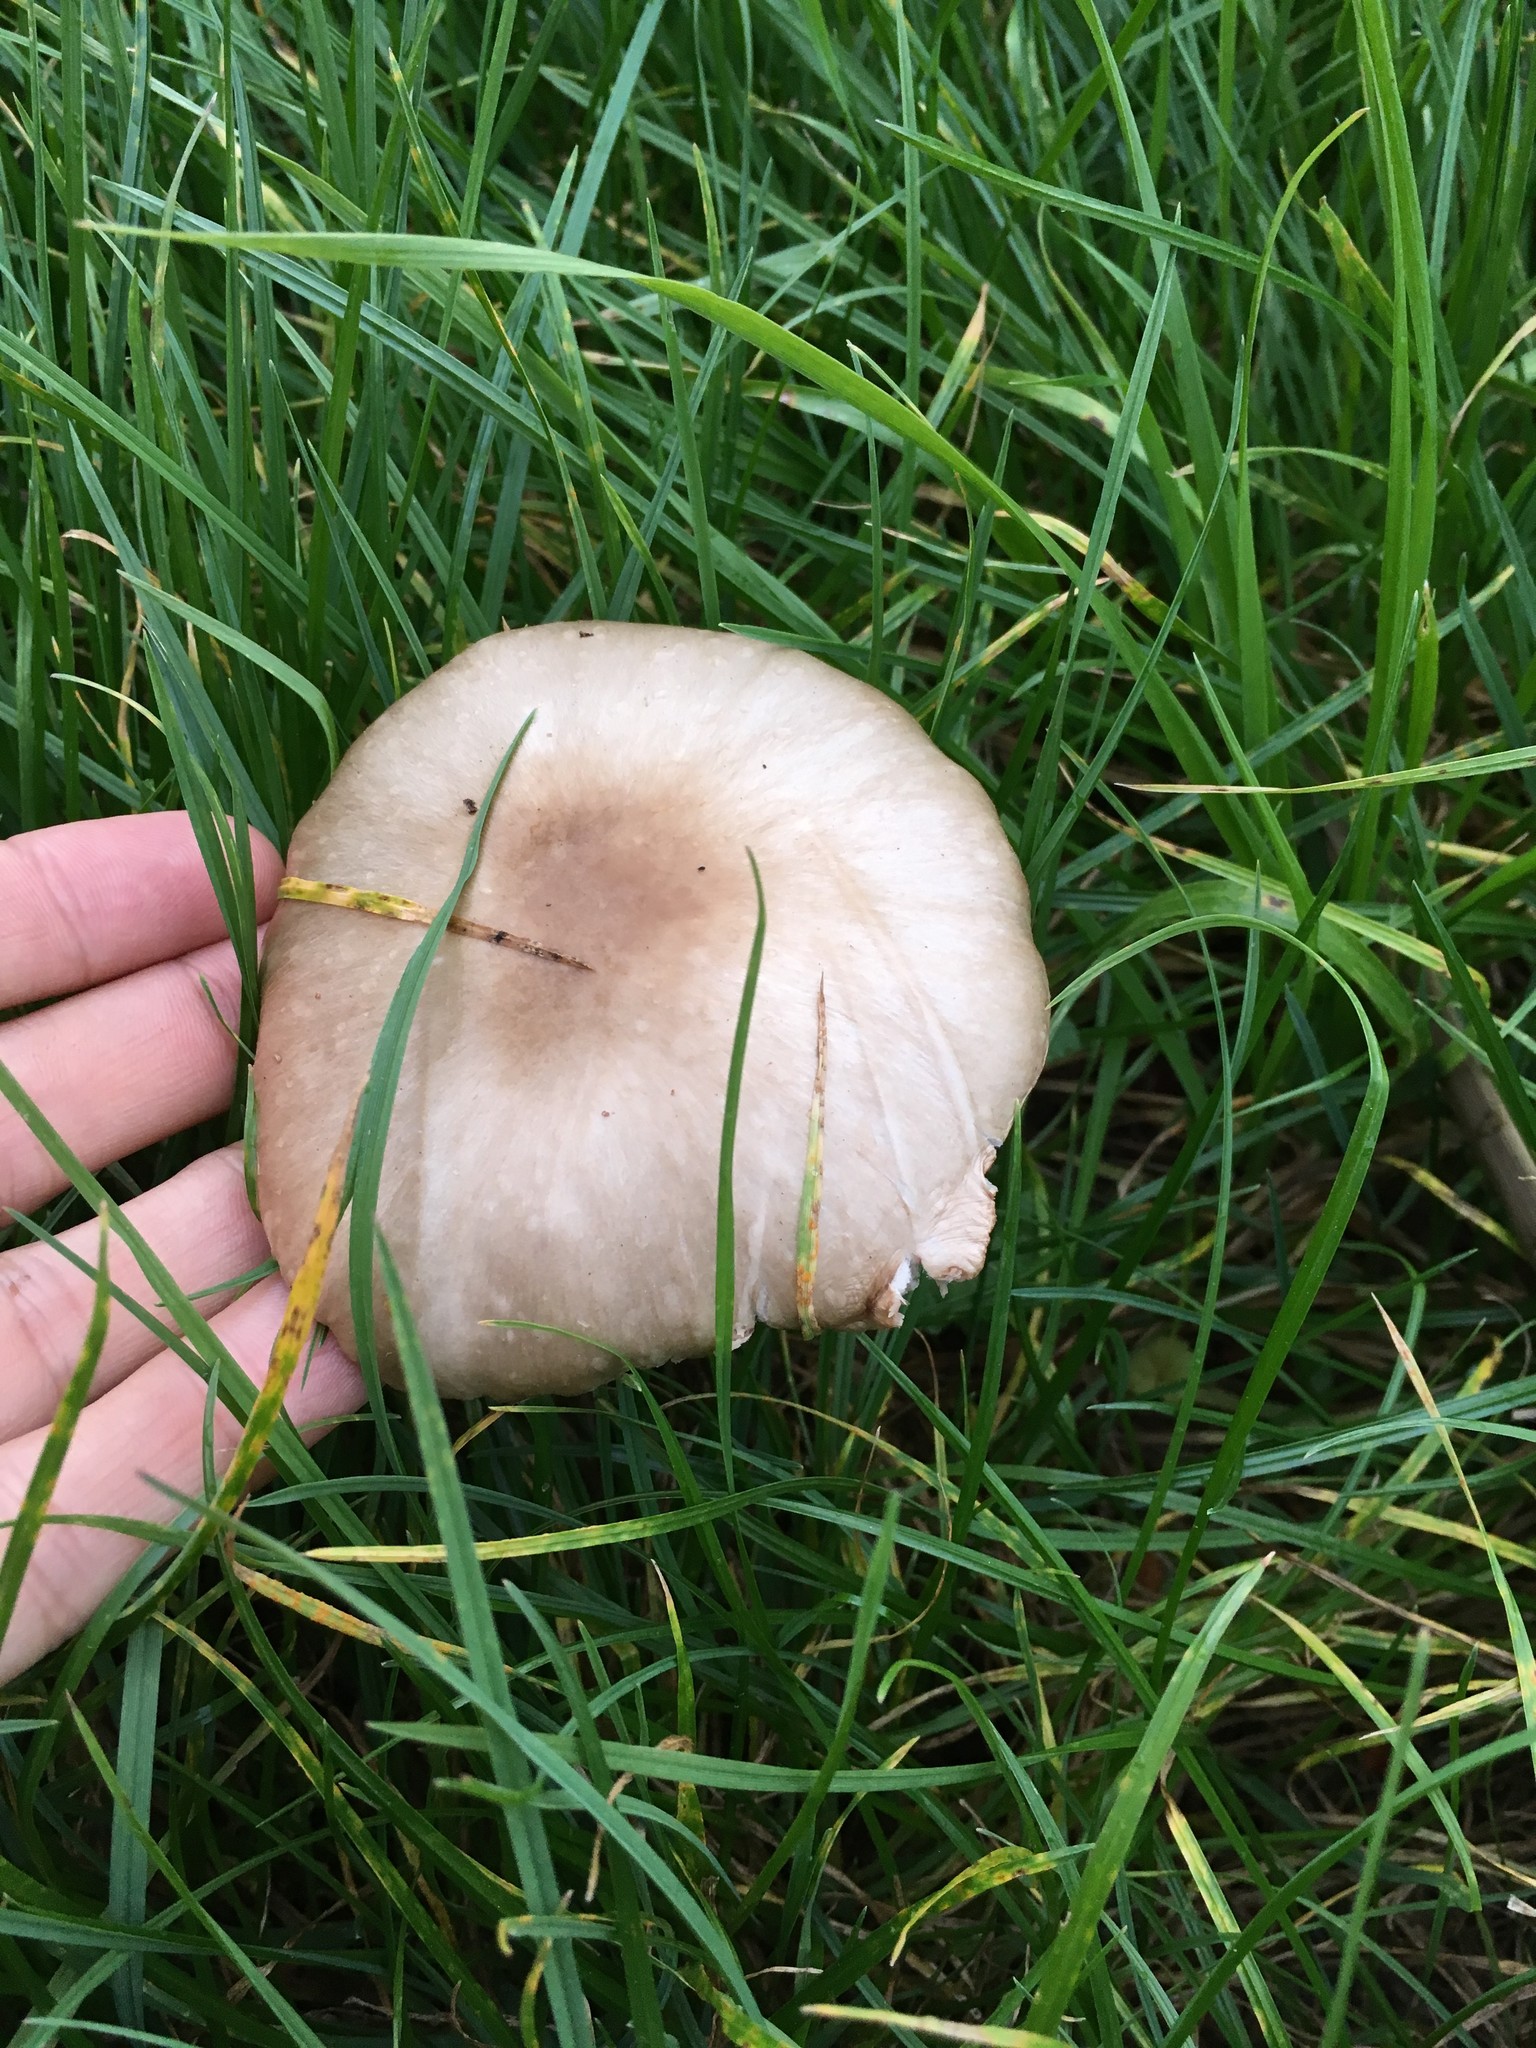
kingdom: Fungi
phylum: Basidiomycota
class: Agaricomycetes
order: Agaricales
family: Pluteaceae
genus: Volvopluteus
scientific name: Volvopluteus gloiocephalus
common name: Stubble rosegill
